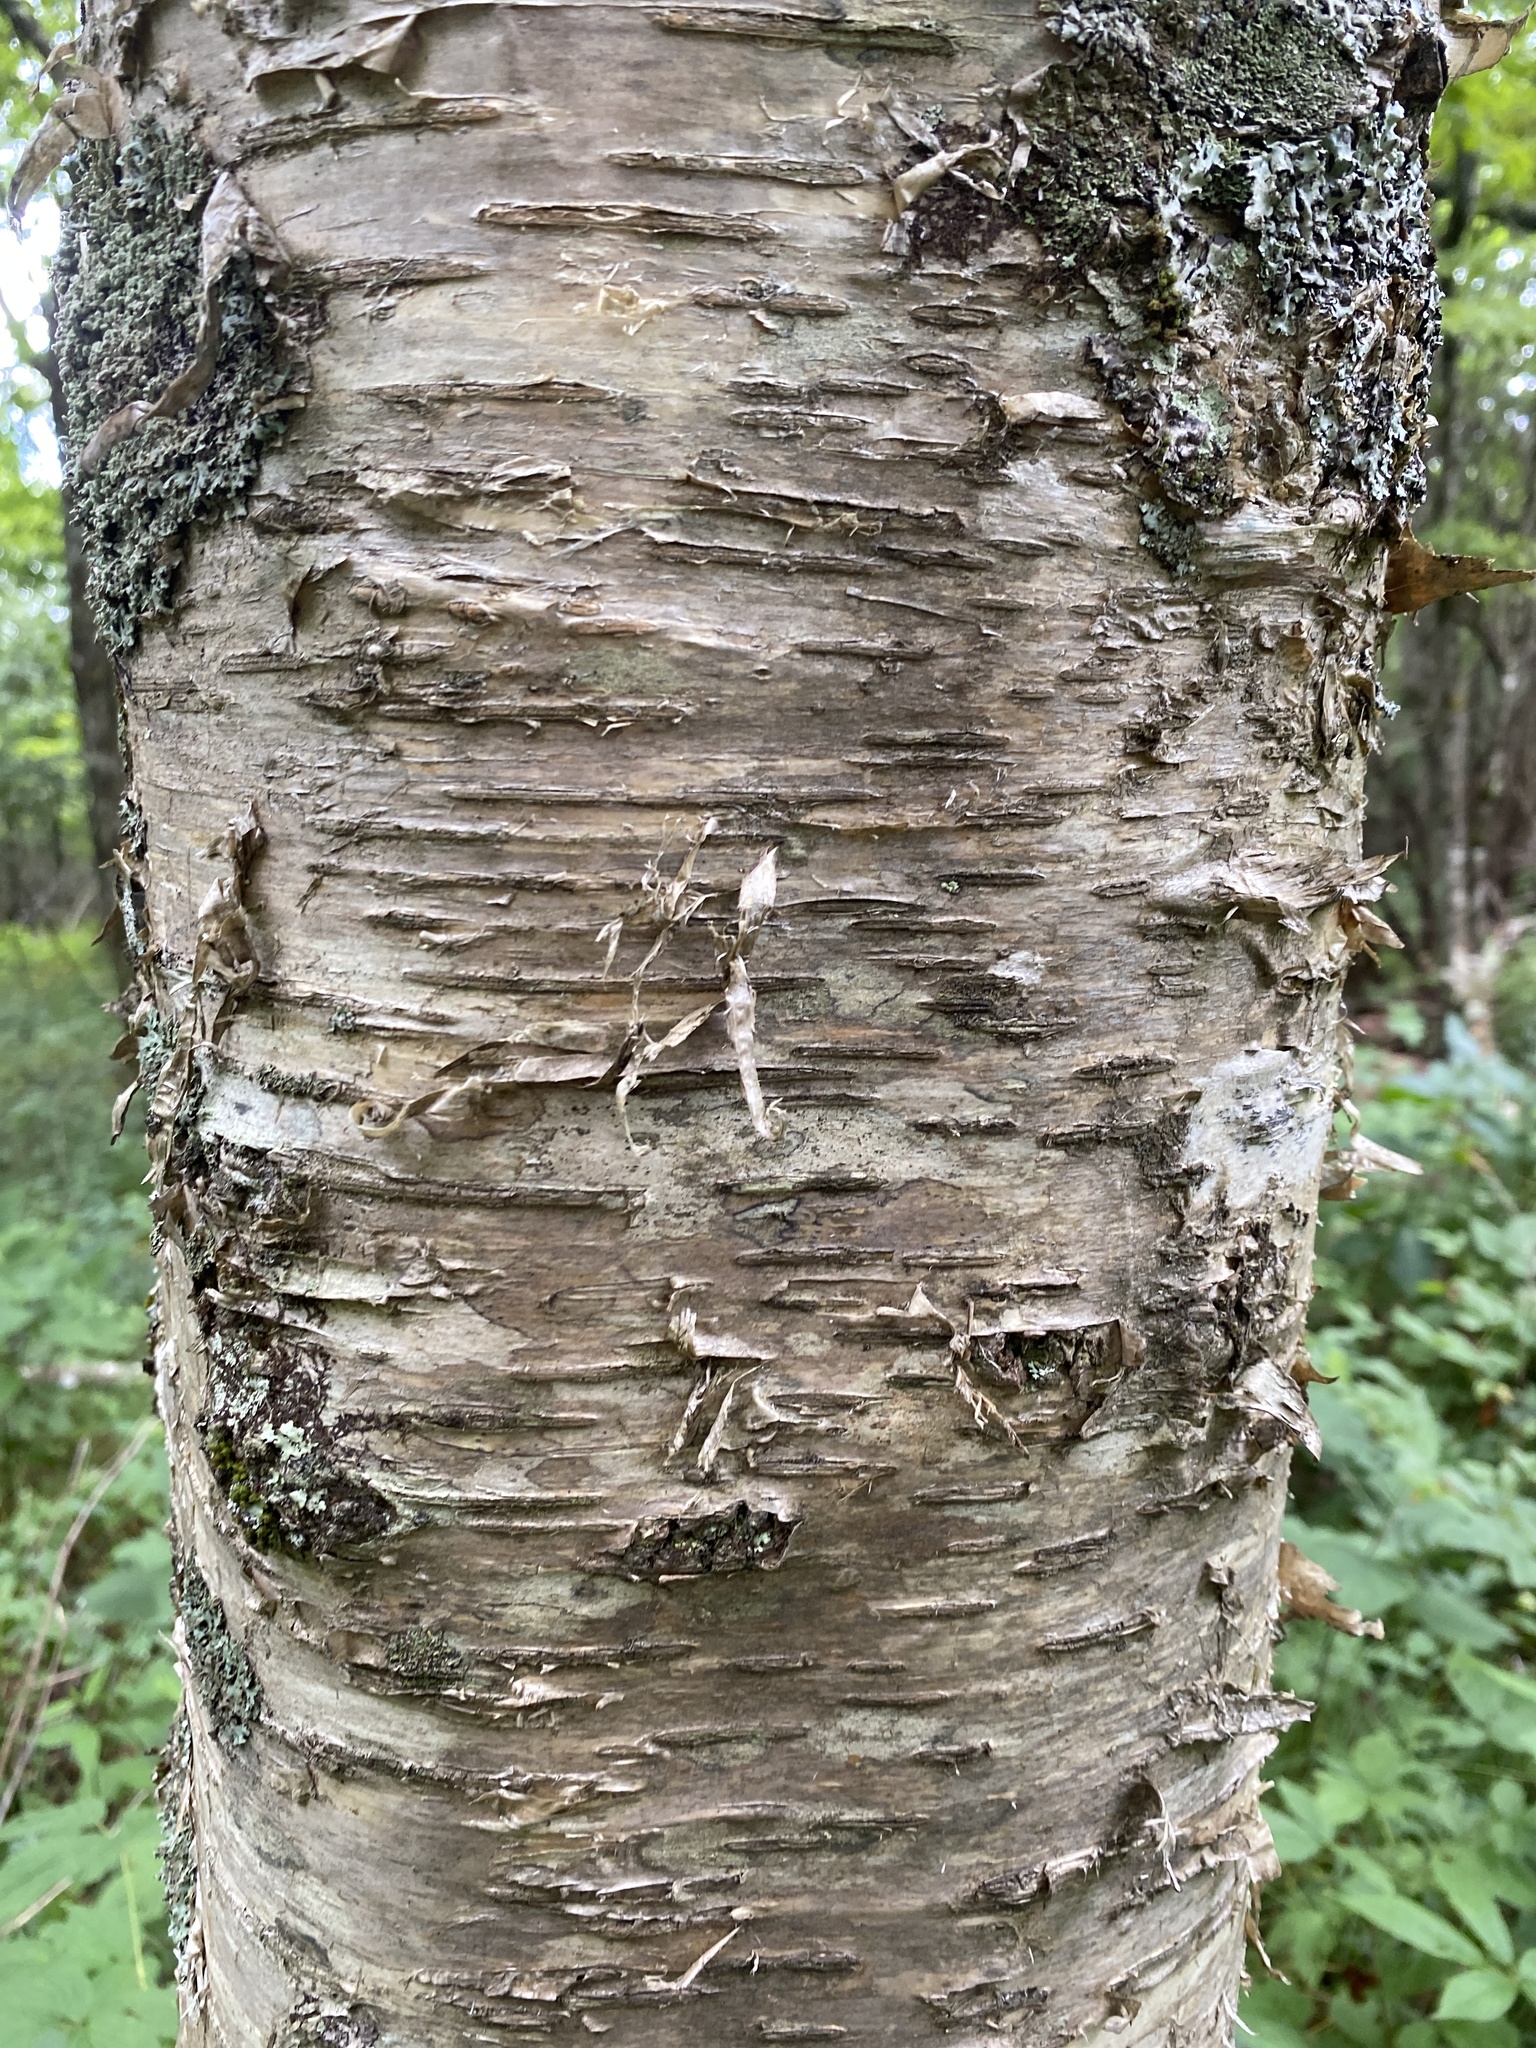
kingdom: Plantae
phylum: Tracheophyta
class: Magnoliopsida
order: Fagales
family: Betulaceae
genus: Betula
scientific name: Betula alleghaniensis
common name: Yellow birch
